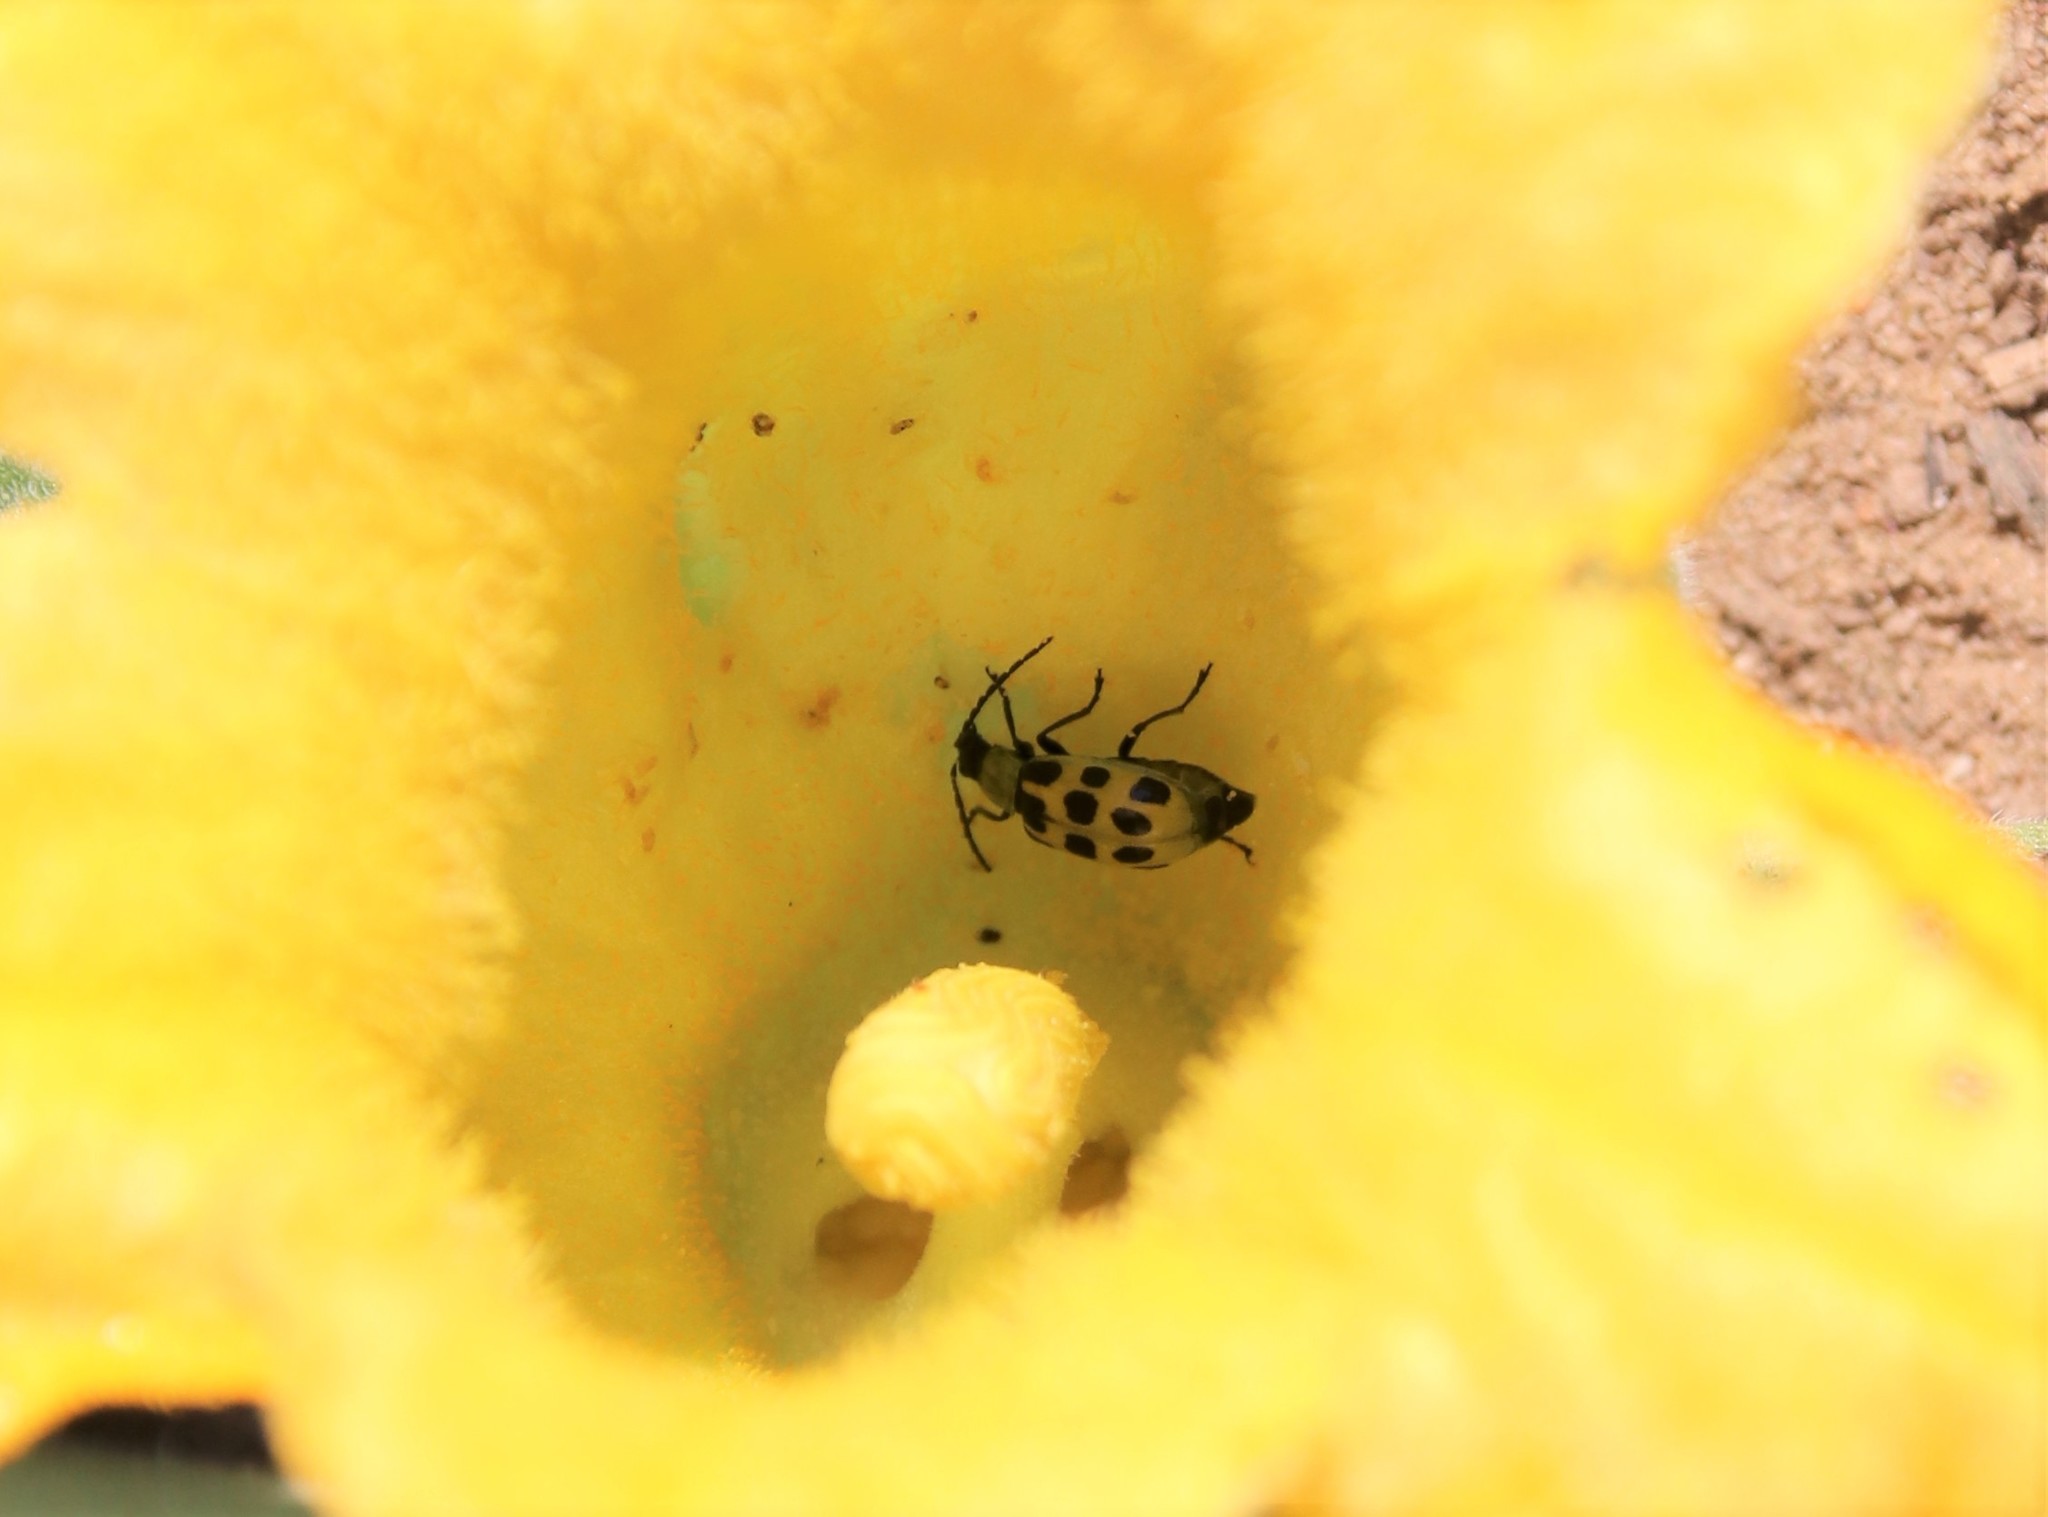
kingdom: Animalia
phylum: Arthropoda
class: Insecta
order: Coleoptera
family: Chrysomelidae
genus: Diabrotica
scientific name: Diabrotica undecimpunctata
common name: Spotted cucumber beetle
